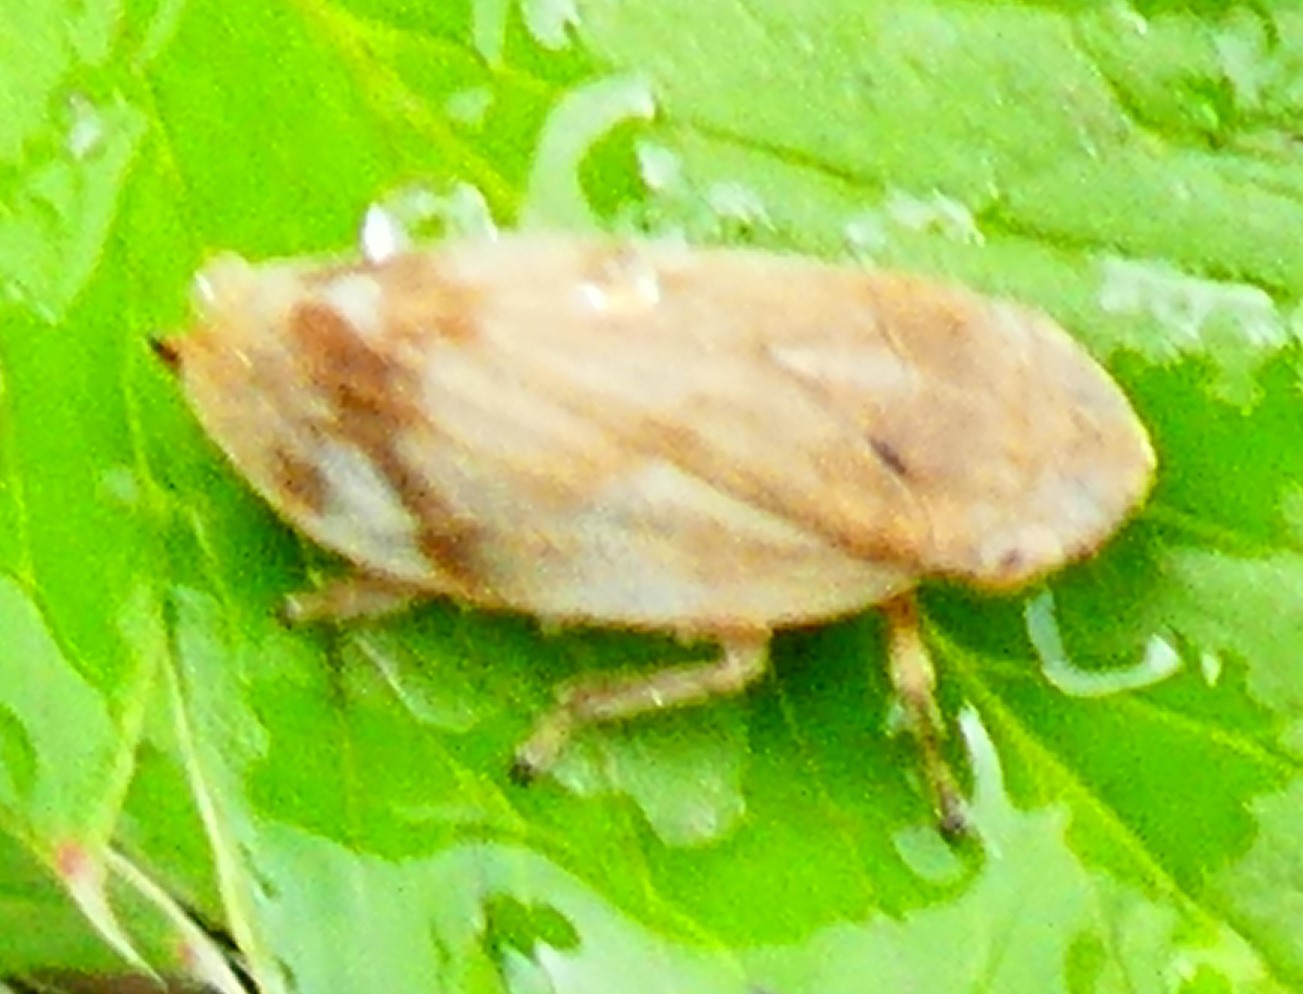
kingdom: Animalia
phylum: Arthropoda
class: Insecta
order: Hemiptera
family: Aphrophoridae
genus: Philaenus
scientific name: Philaenus spumarius
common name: Meadow spittlebug
